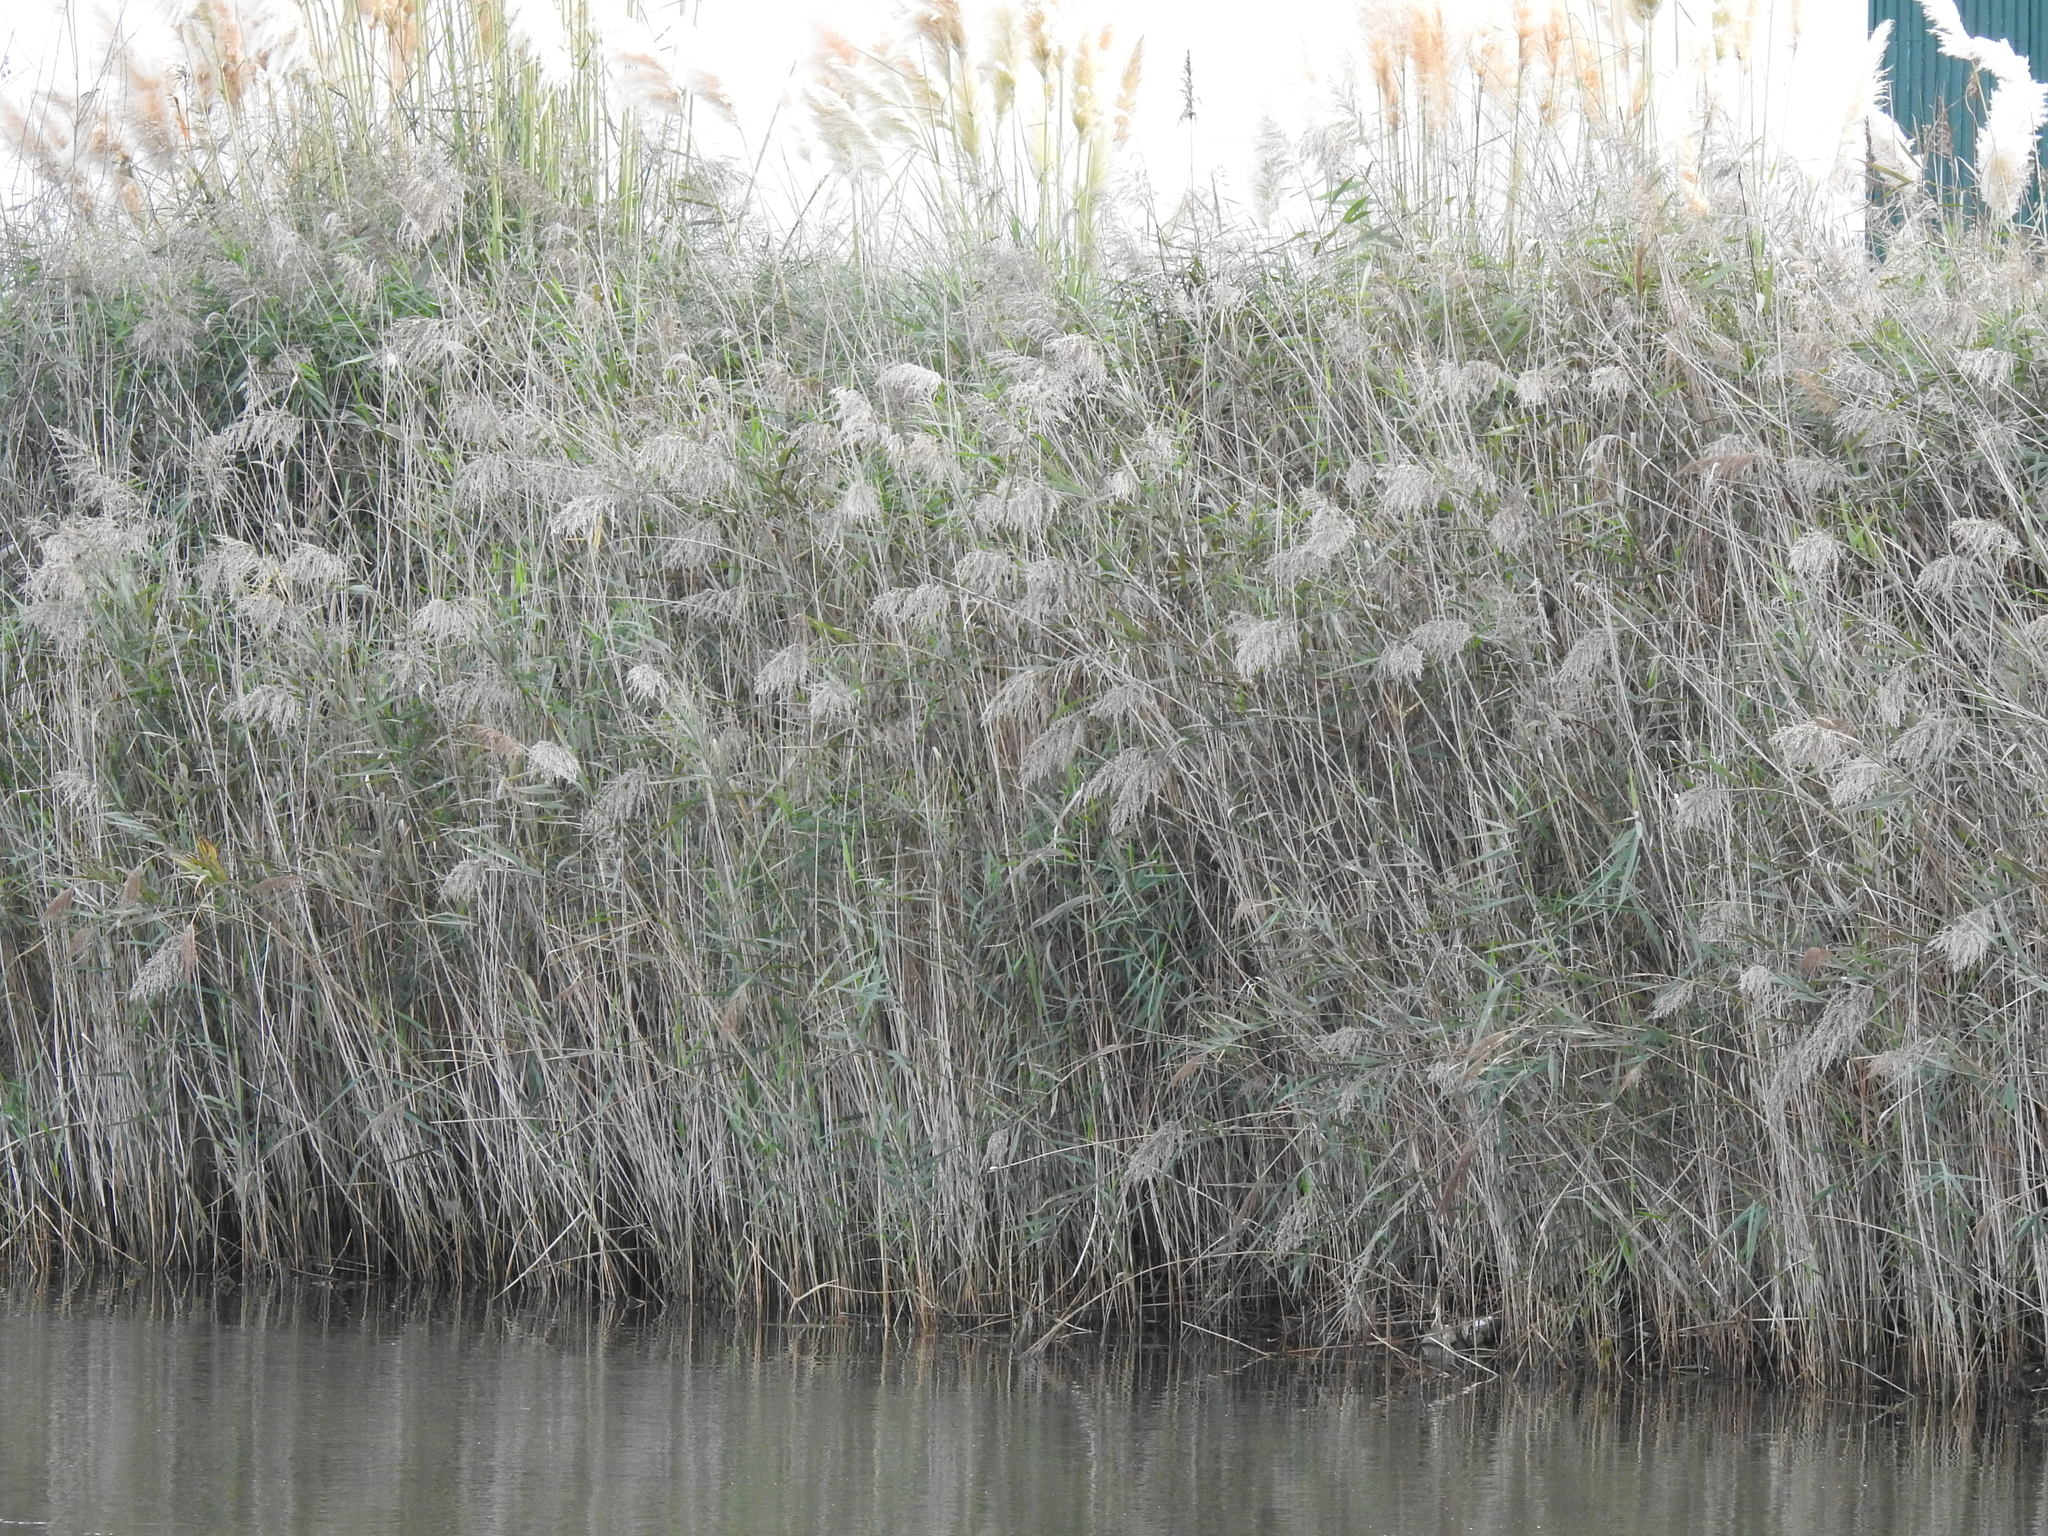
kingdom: Plantae
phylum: Tracheophyta
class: Liliopsida
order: Poales
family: Poaceae
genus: Phragmites
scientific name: Phragmites australis
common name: Common reed
